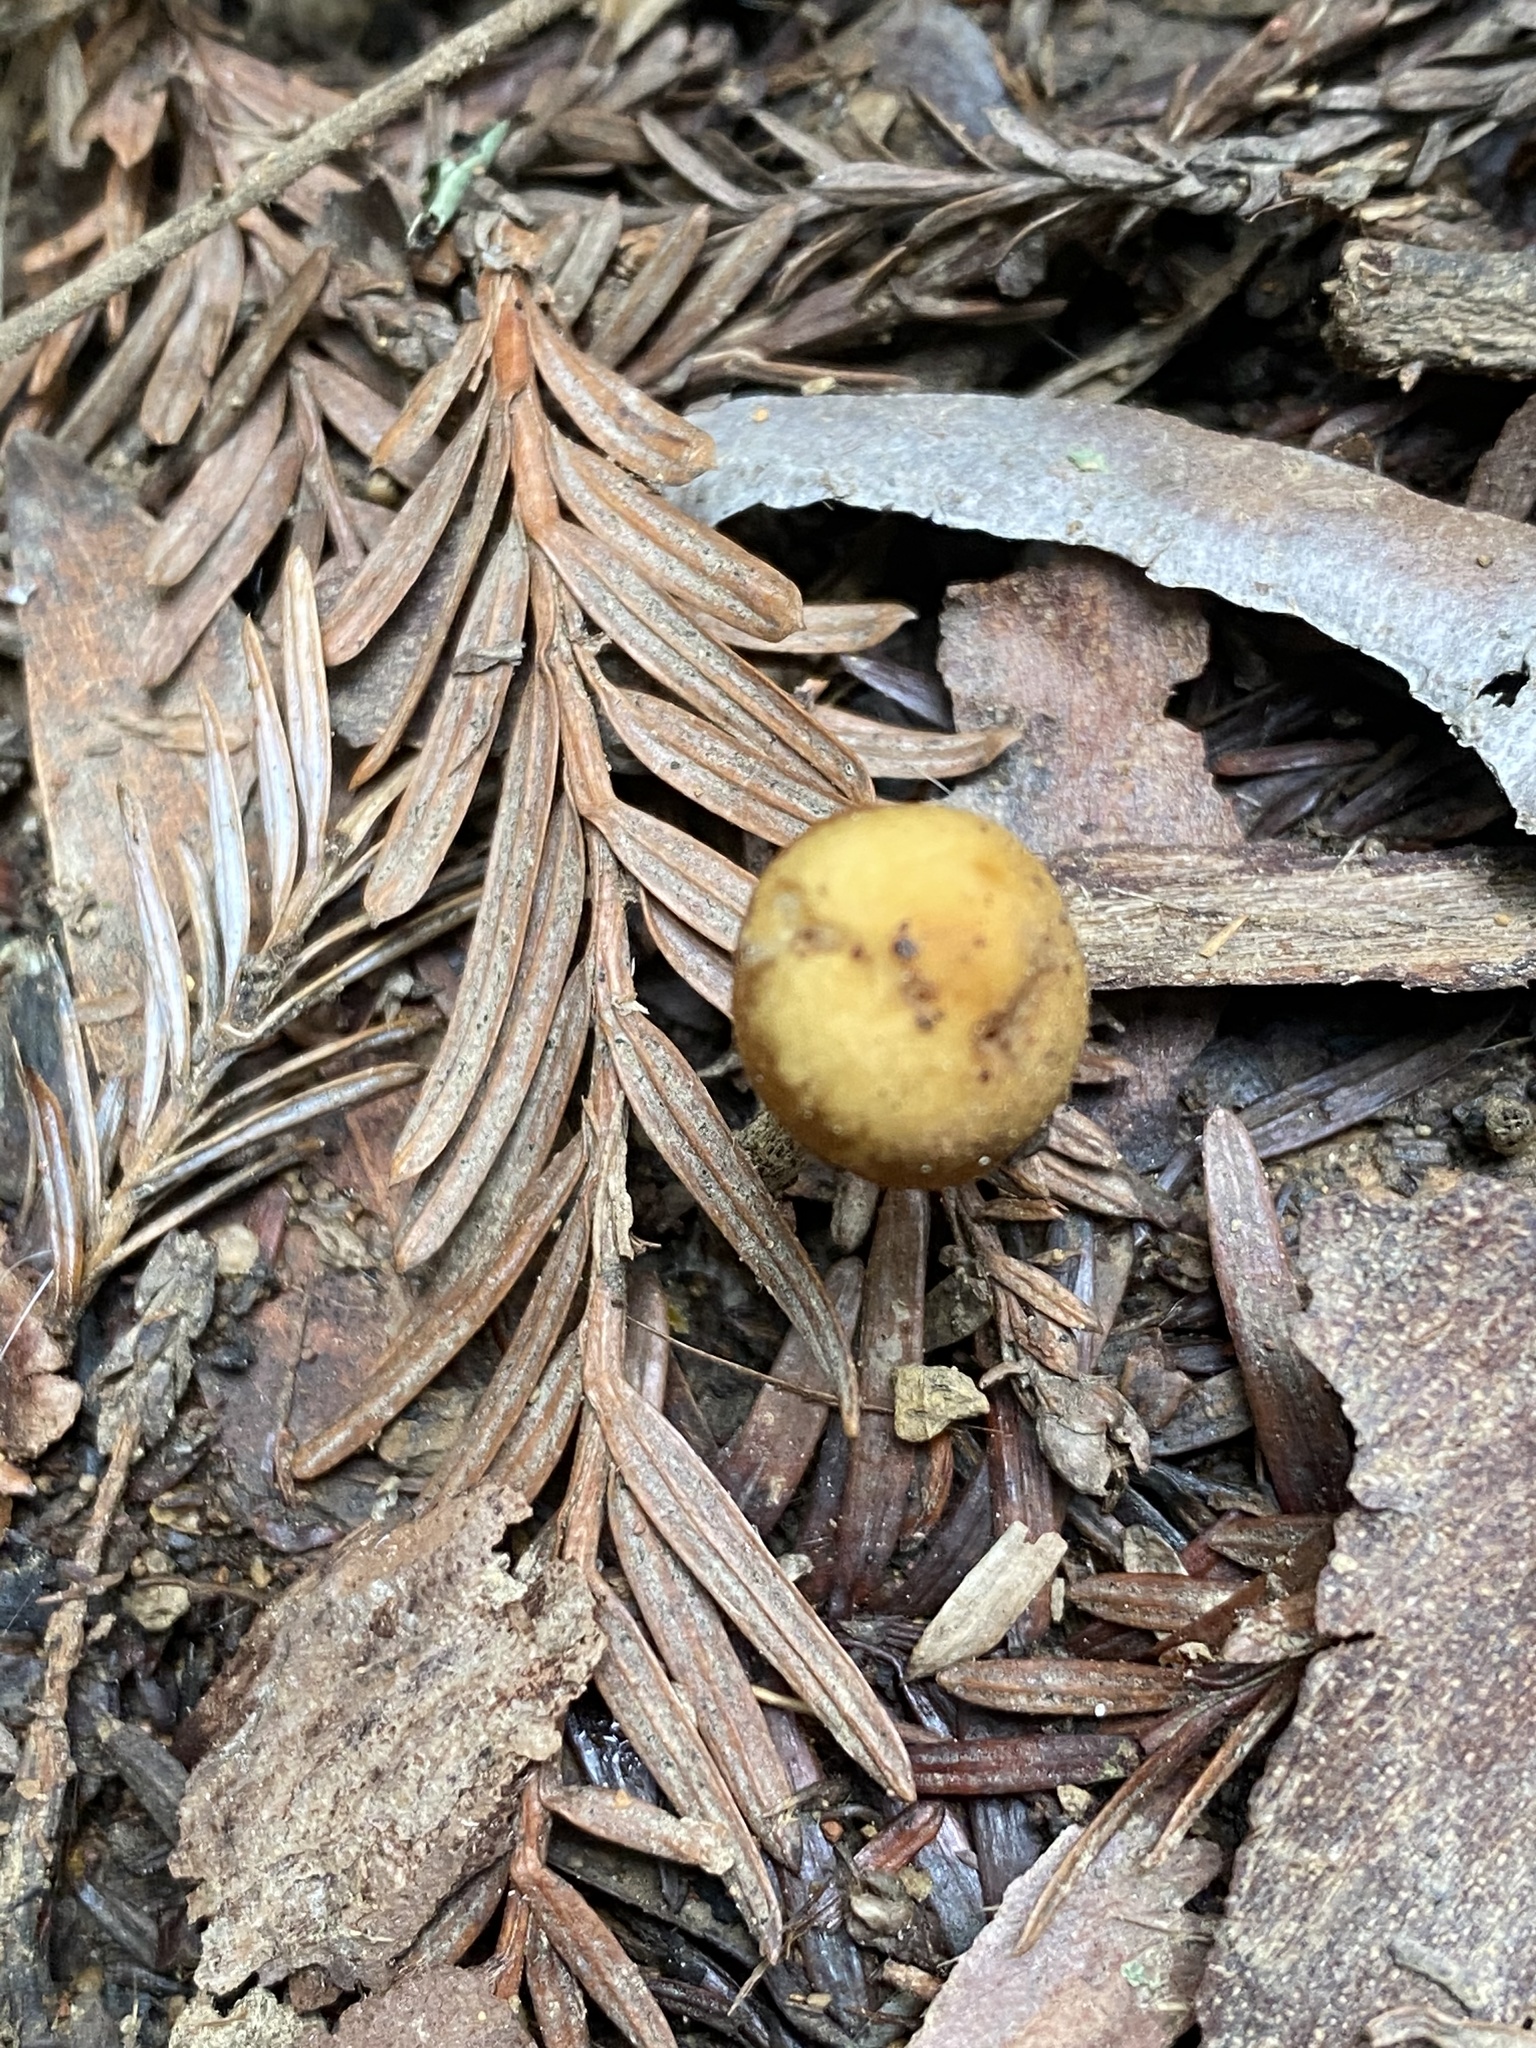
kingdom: Fungi
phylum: Basidiomycota
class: Agaricomycetes
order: Agaricales
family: Hymenogastraceae
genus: Galerina
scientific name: Galerina badipes
